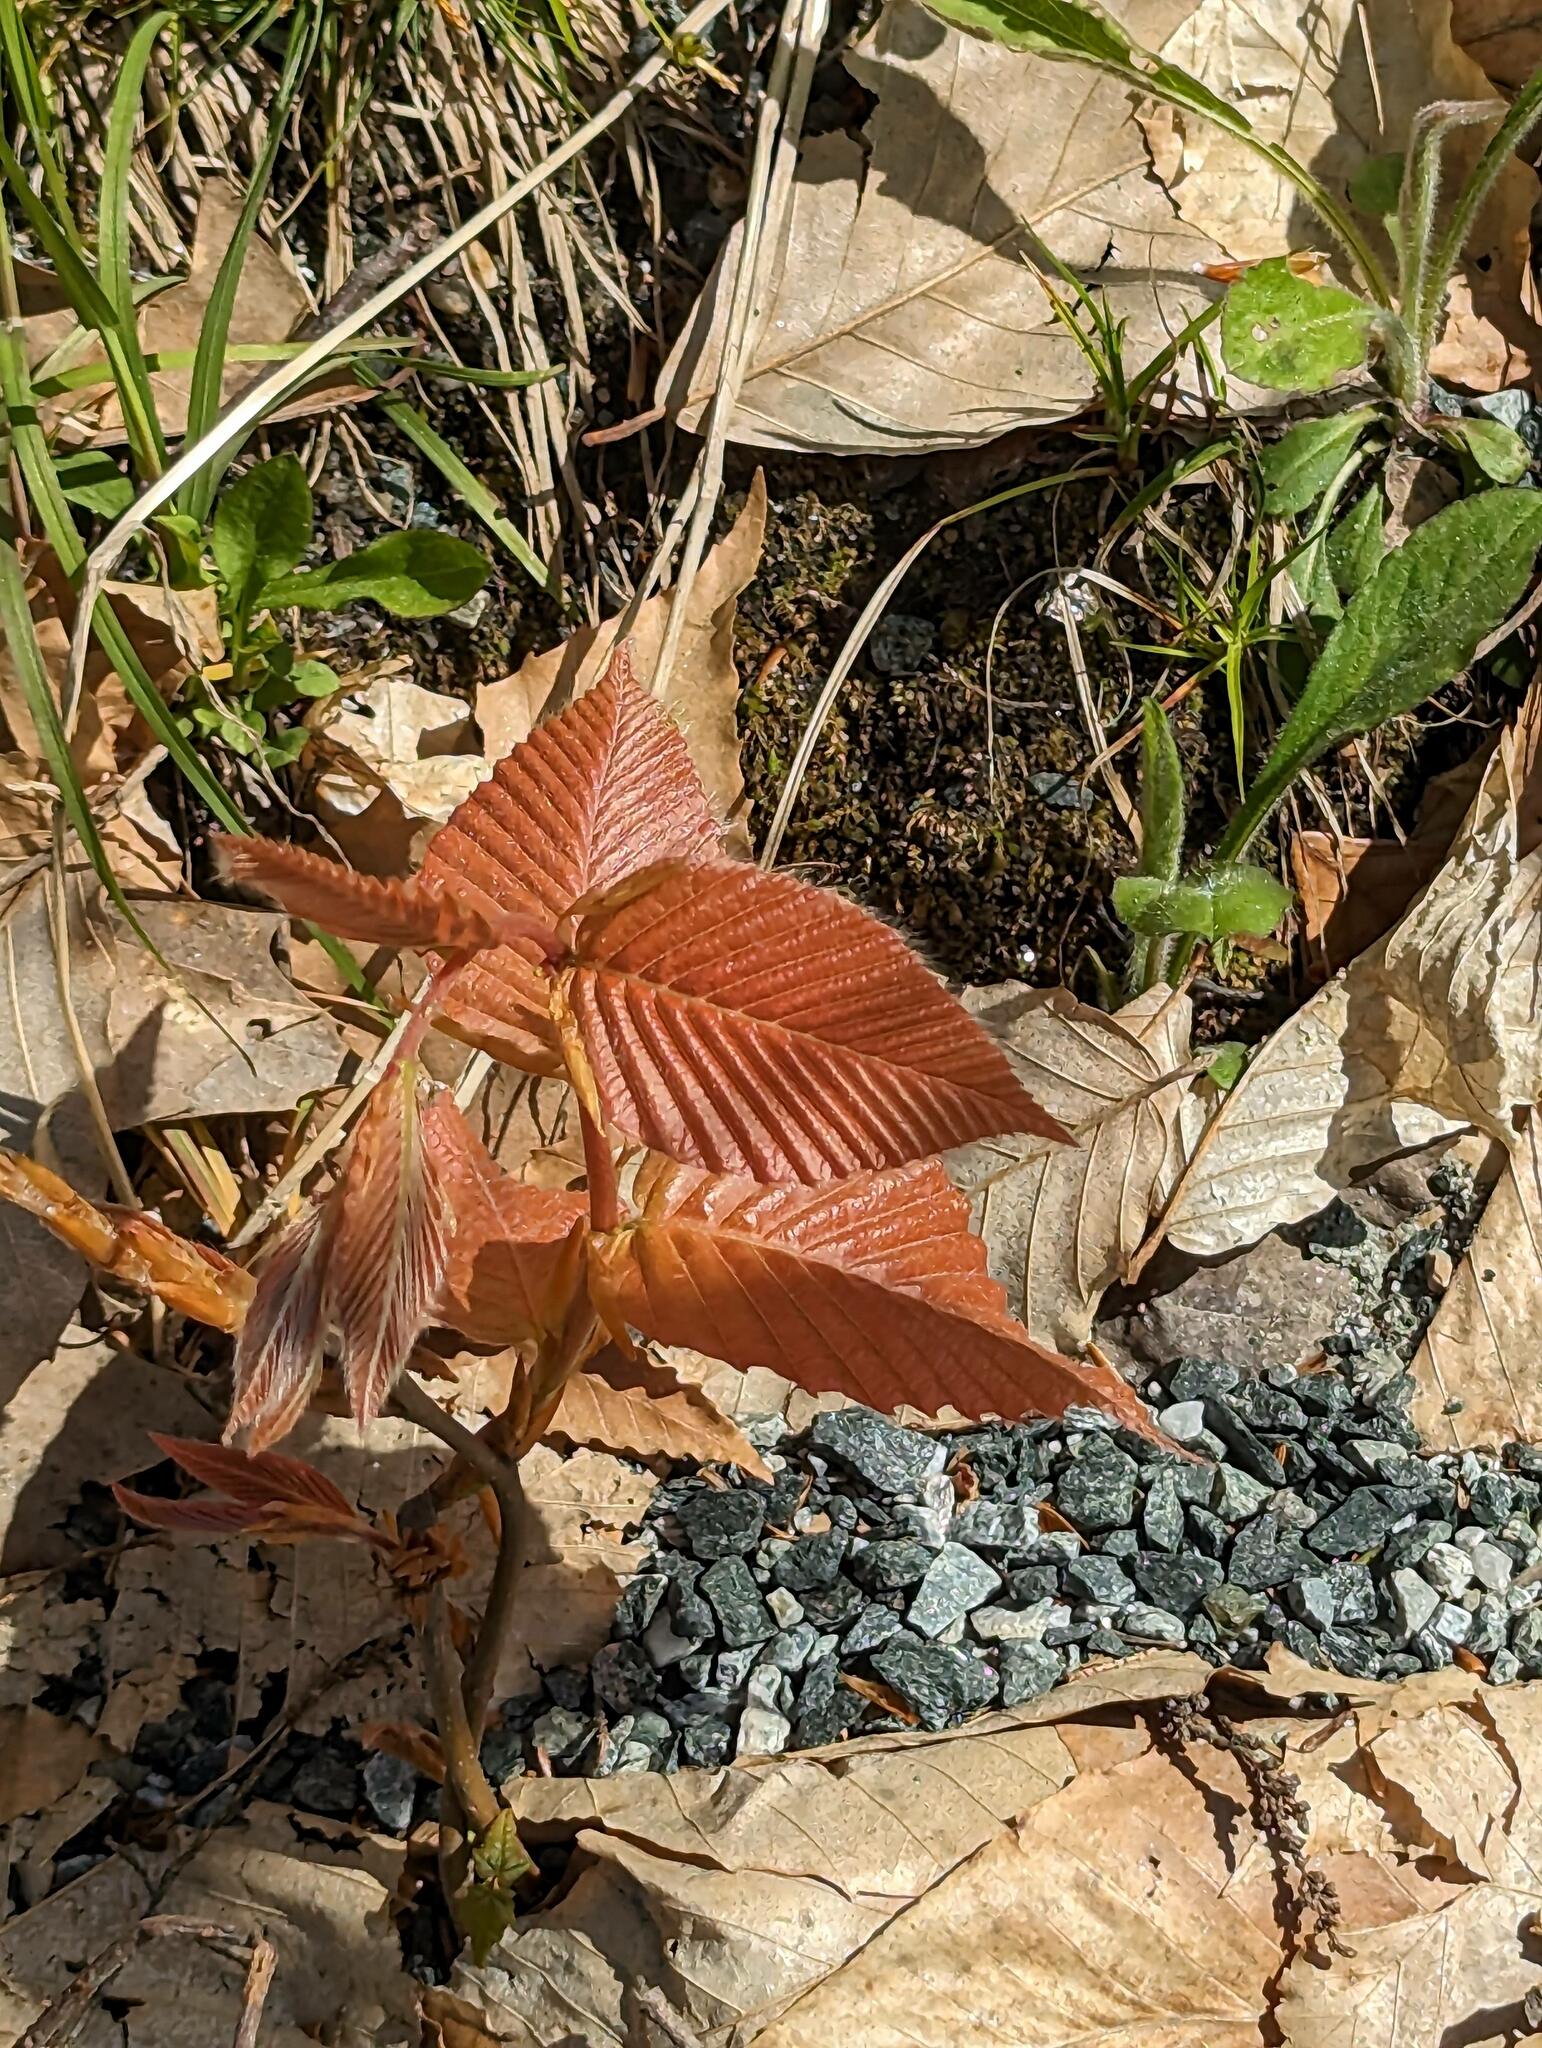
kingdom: Plantae
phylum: Tracheophyta
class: Magnoliopsida
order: Fagales
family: Fagaceae
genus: Fagus
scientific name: Fagus grandifolia
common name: American beech
